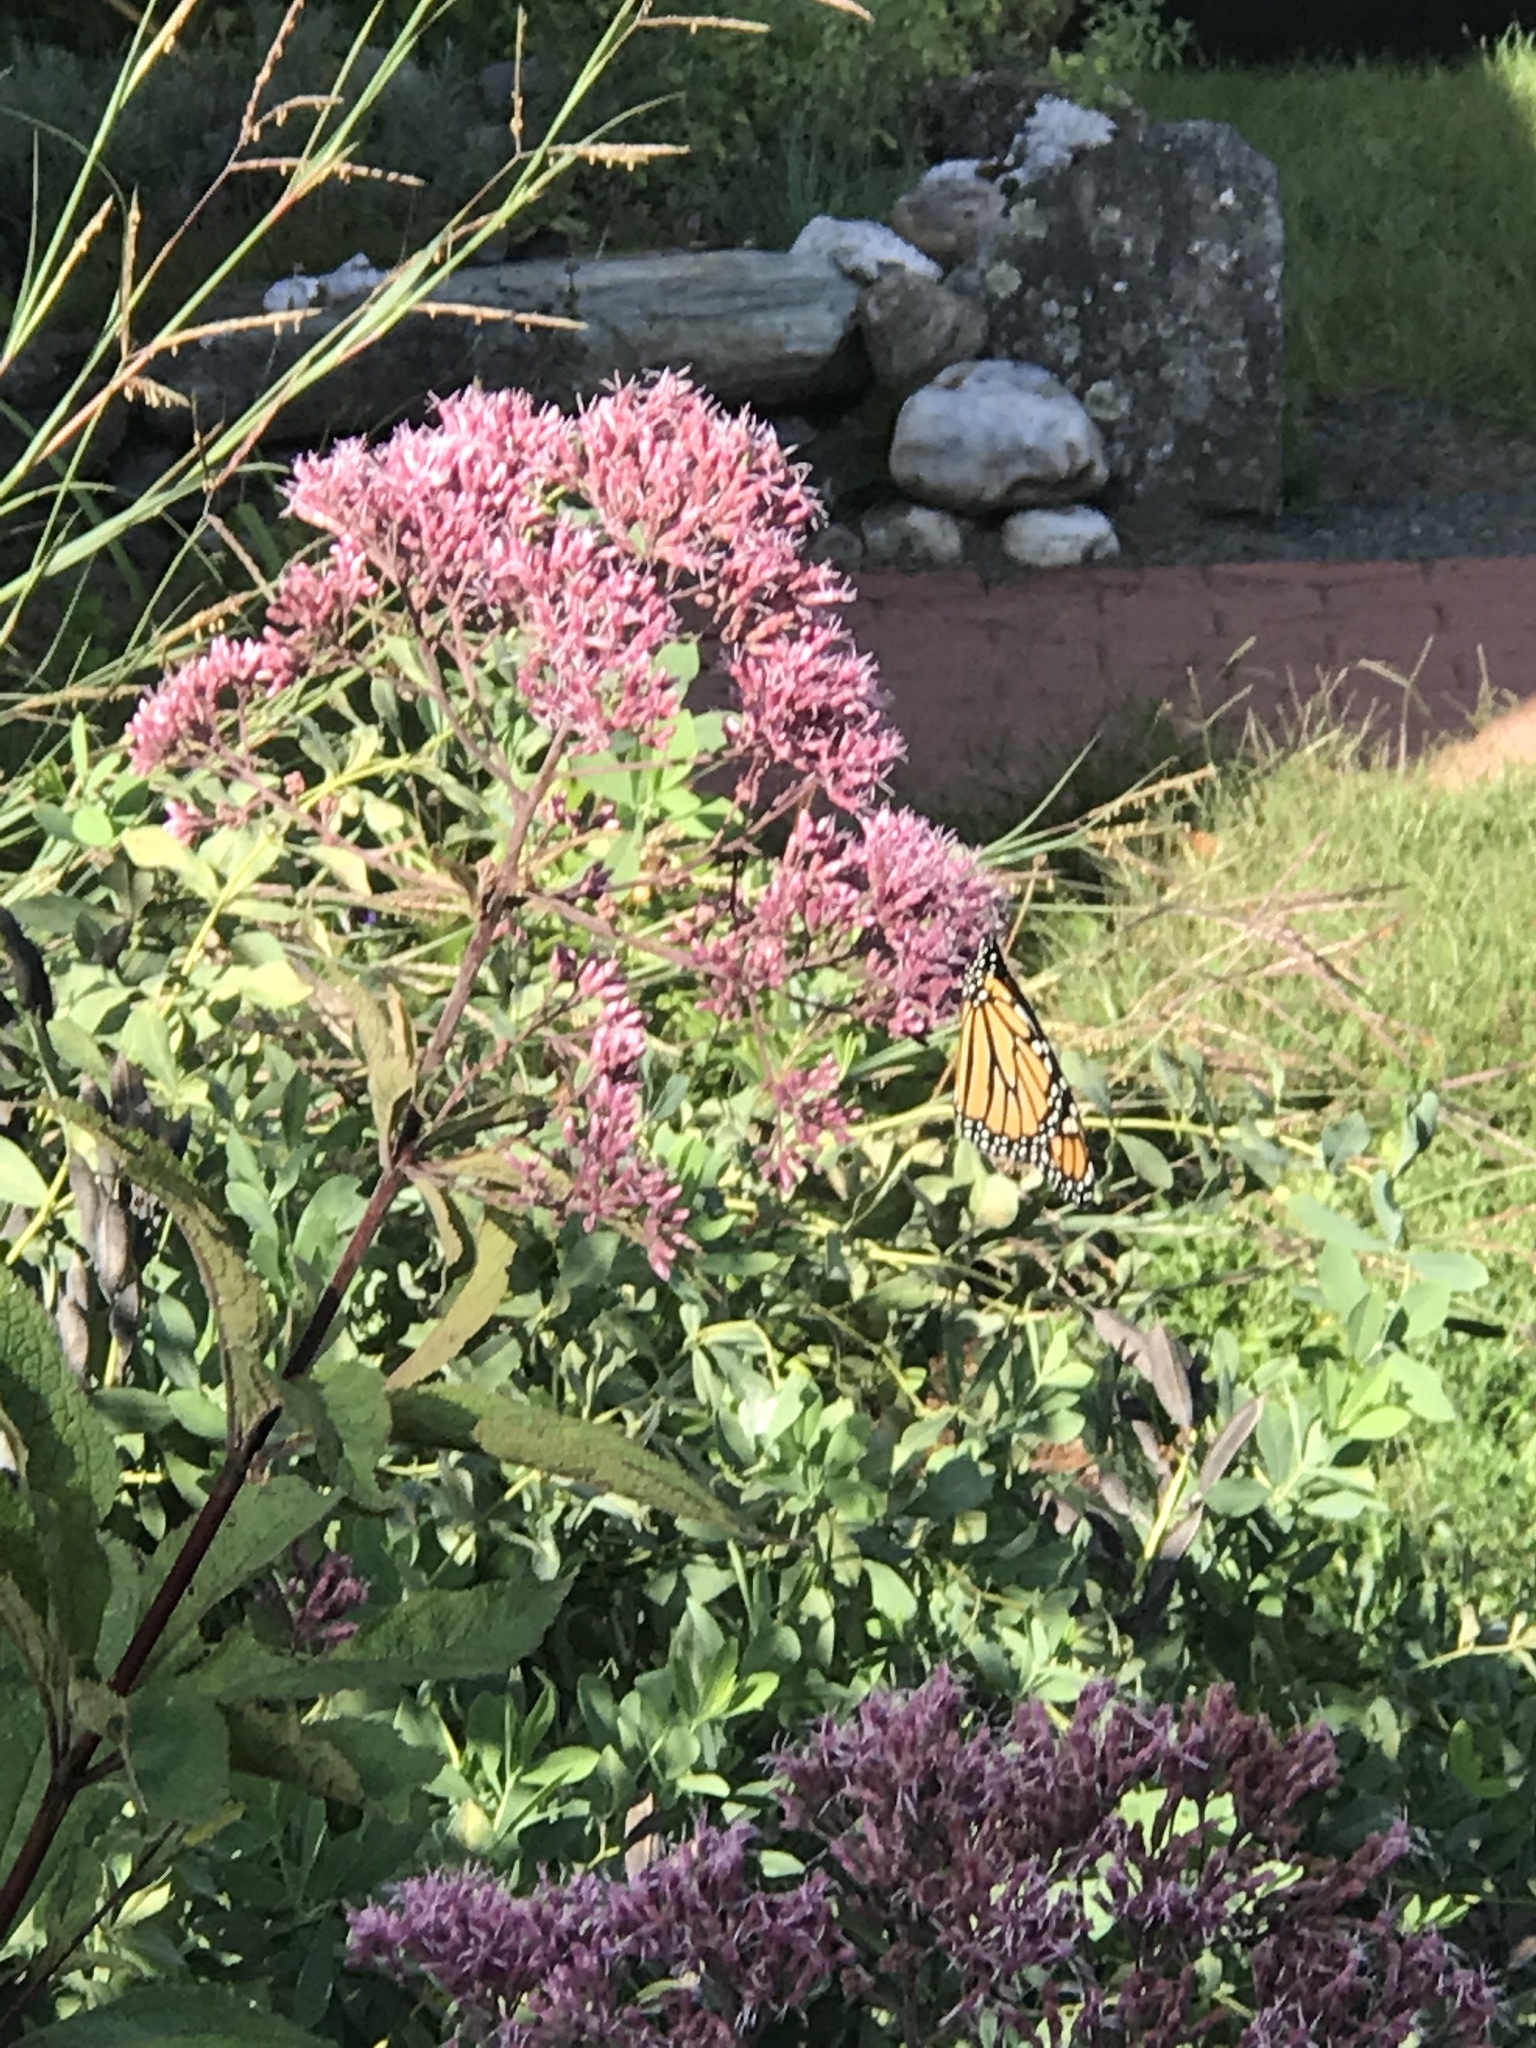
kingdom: Animalia
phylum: Arthropoda
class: Insecta
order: Lepidoptera
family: Nymphalidae
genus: Danaus
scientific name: Danaus plexippus
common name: Monarch
